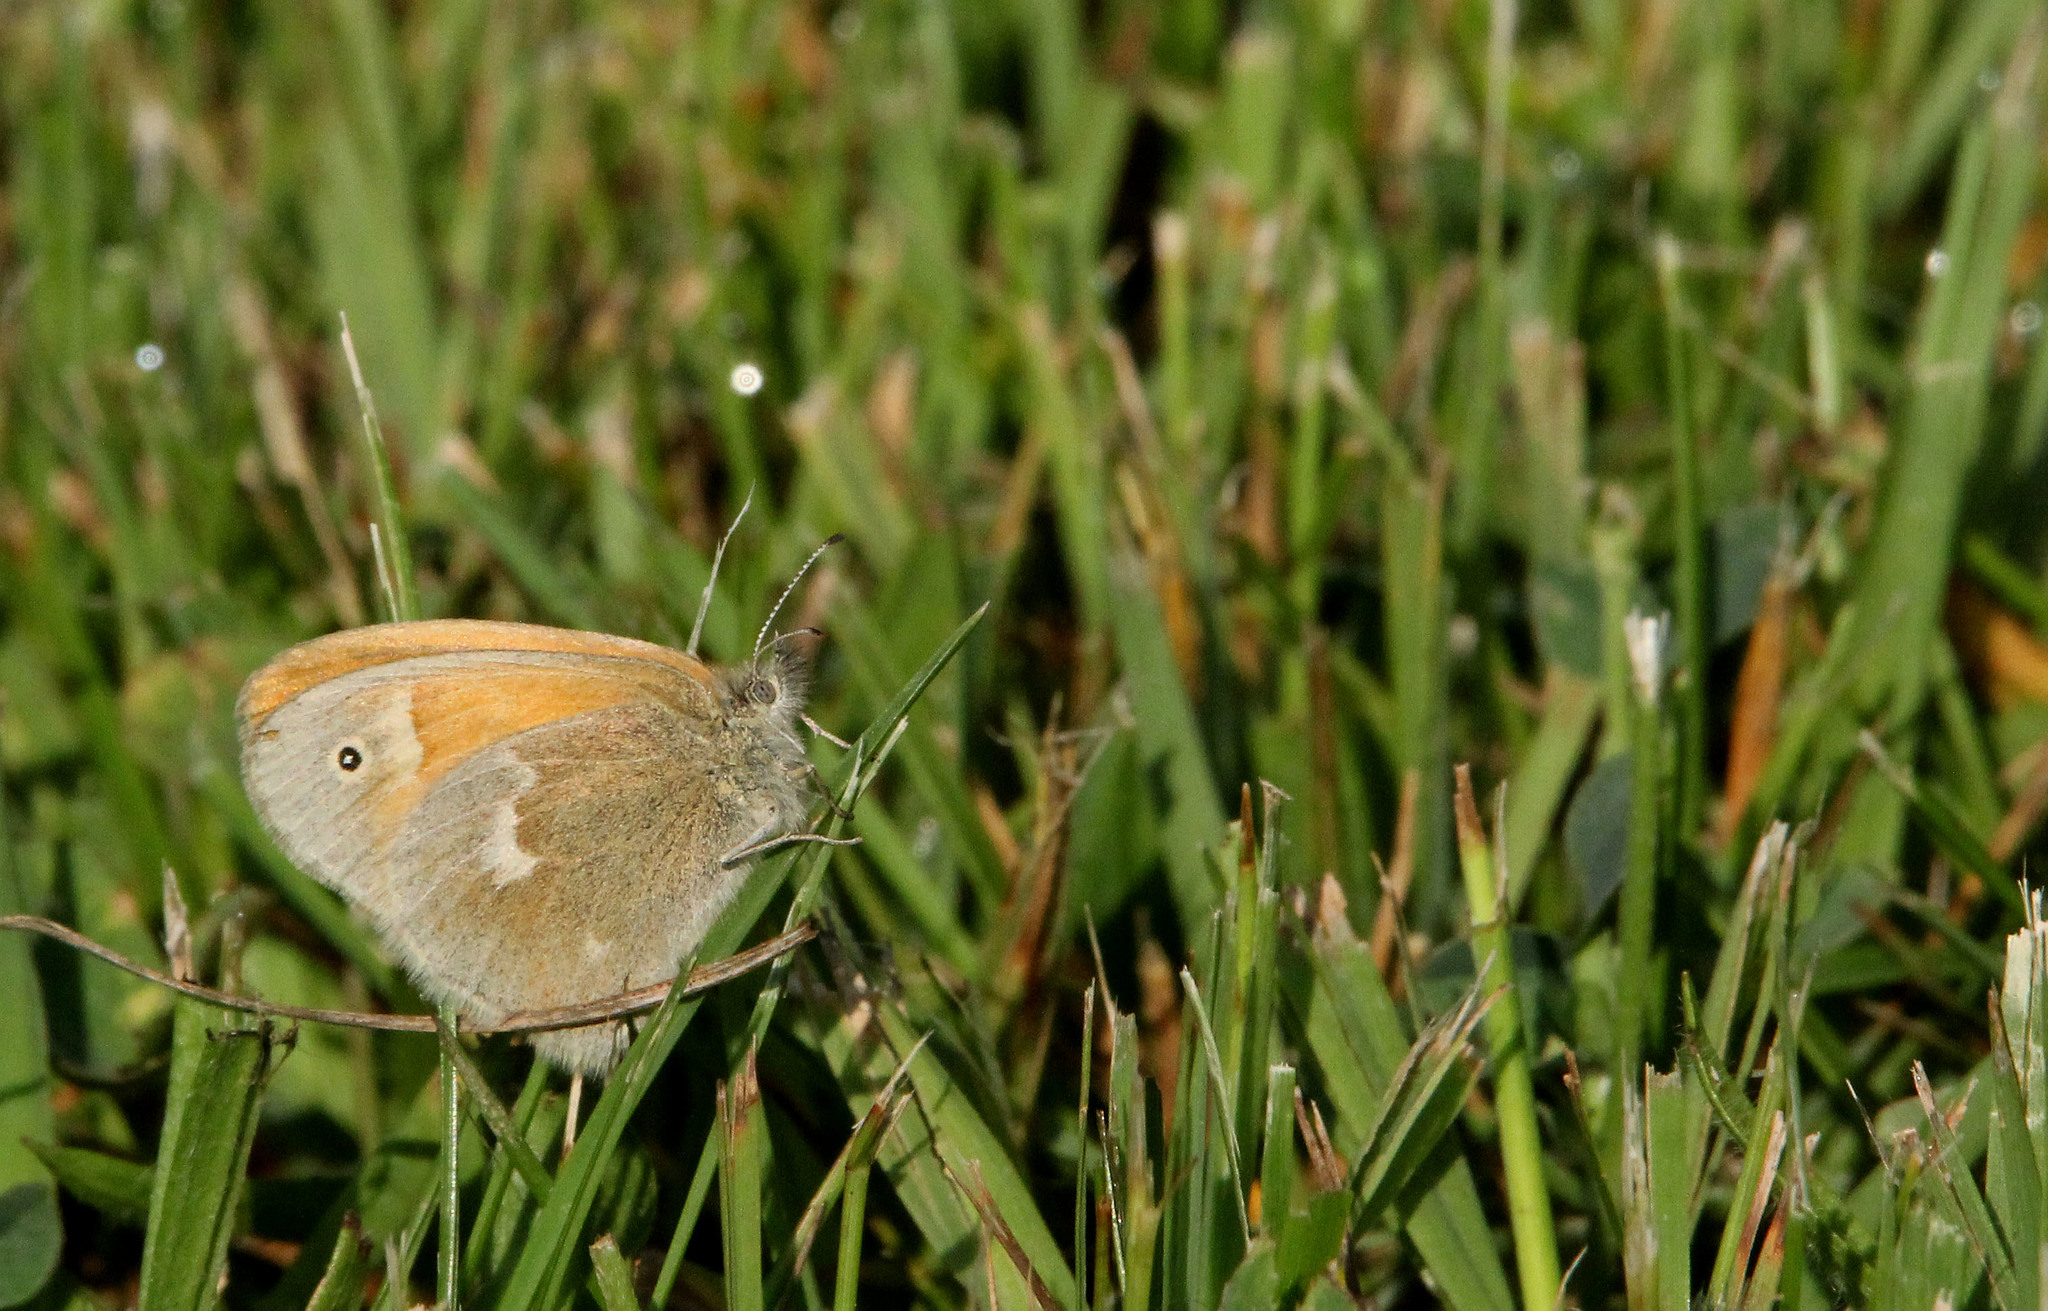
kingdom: Animalia
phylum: Arthropoda
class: Insecta
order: Lepidoptera
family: Nymphalidae
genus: Coenonympha
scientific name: Coenonympha california
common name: Common ringlet
